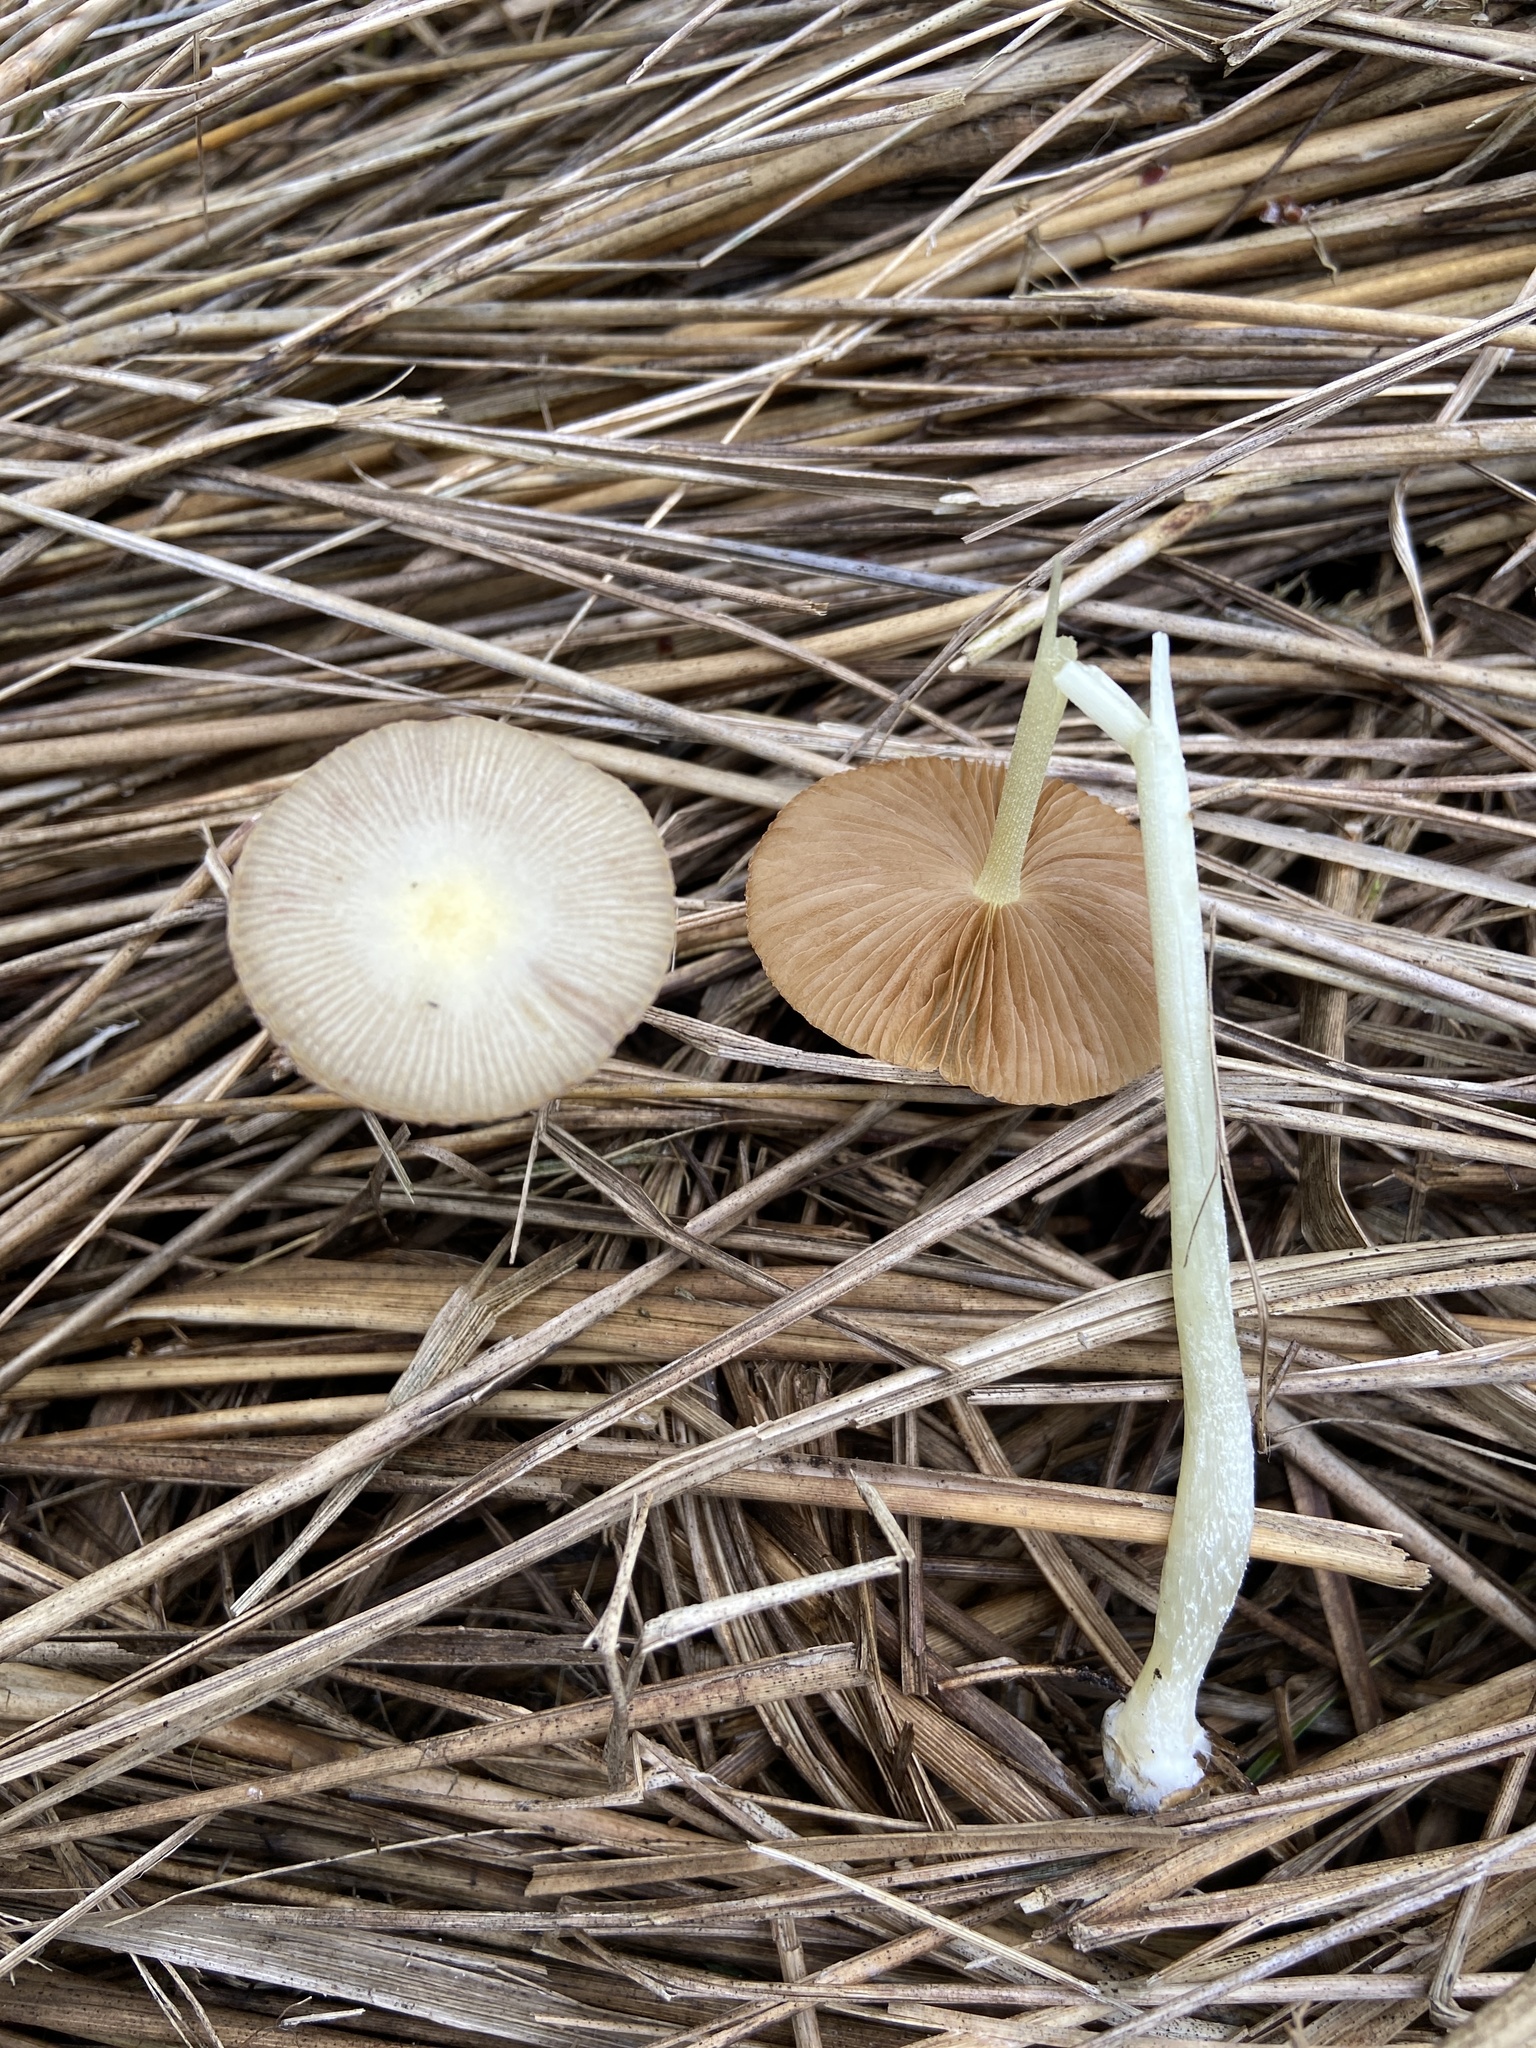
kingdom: Fungi
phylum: Basidiomycota
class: Agaricomycetes
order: Agaricales
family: Bolbitiaceae
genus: Bolbitius
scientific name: Bolbitius titubans
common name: Yellow fieldcap
